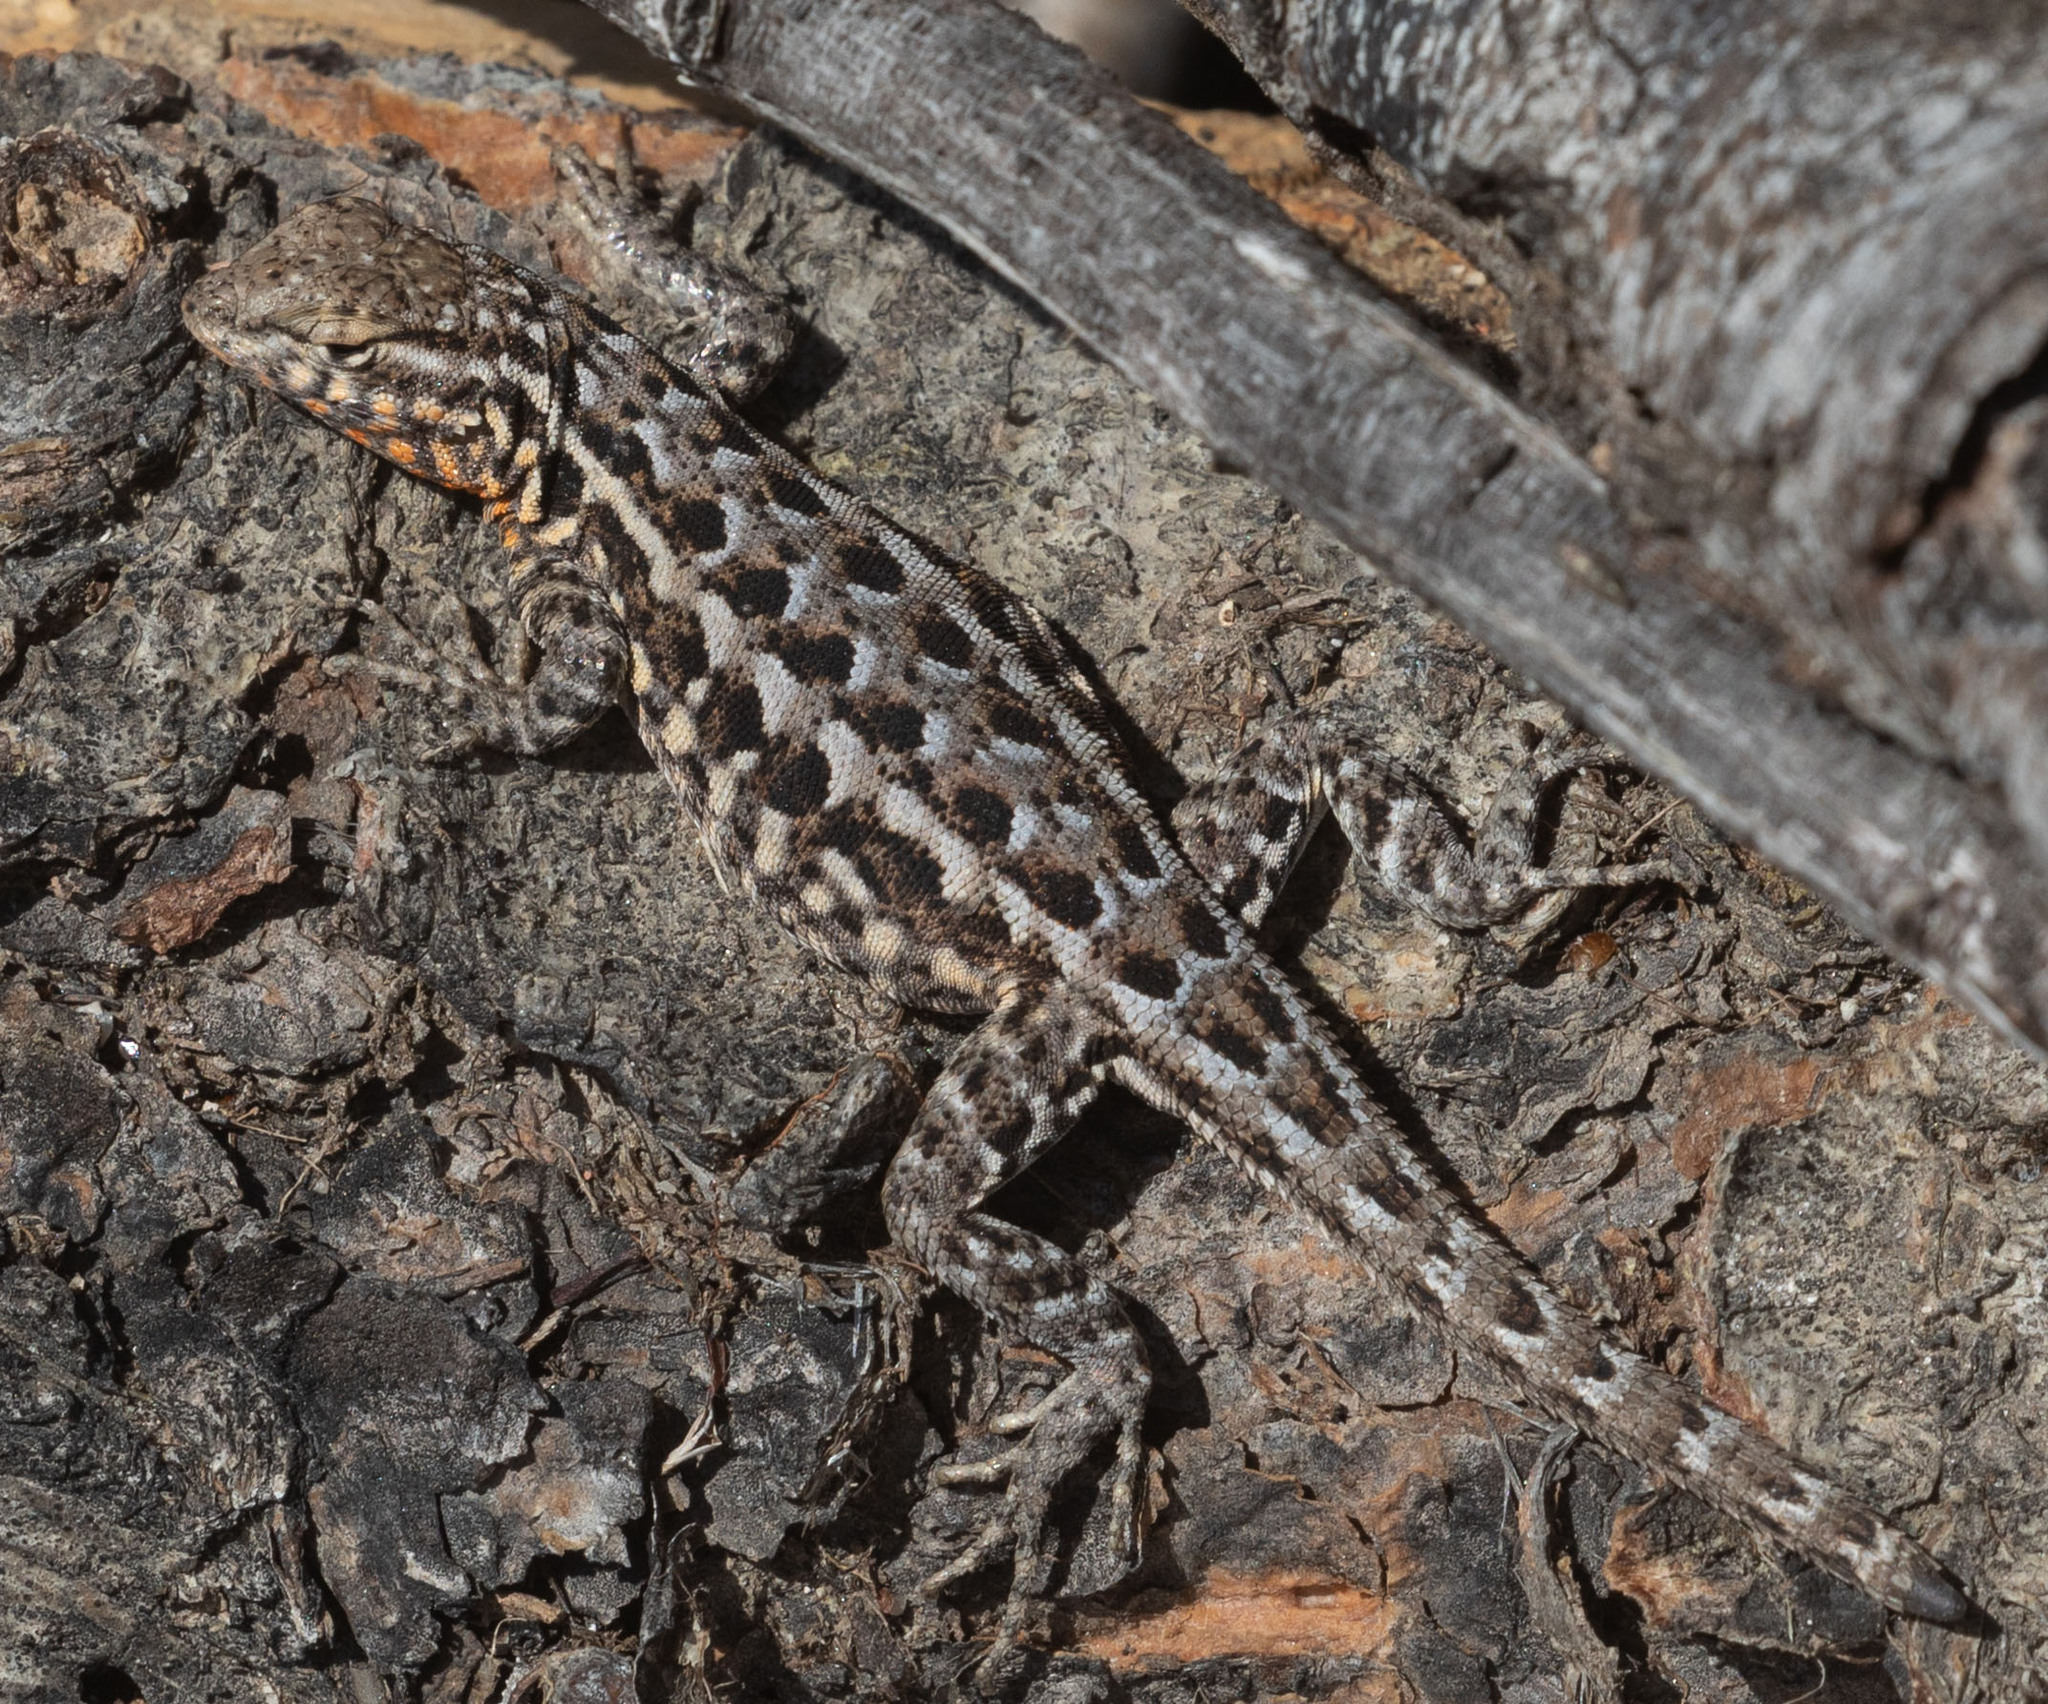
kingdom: Animalia
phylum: Chordata
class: Squamata
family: Phrynosomatidae
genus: Uta
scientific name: Uta stansburiana
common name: Side-blotched lizard
